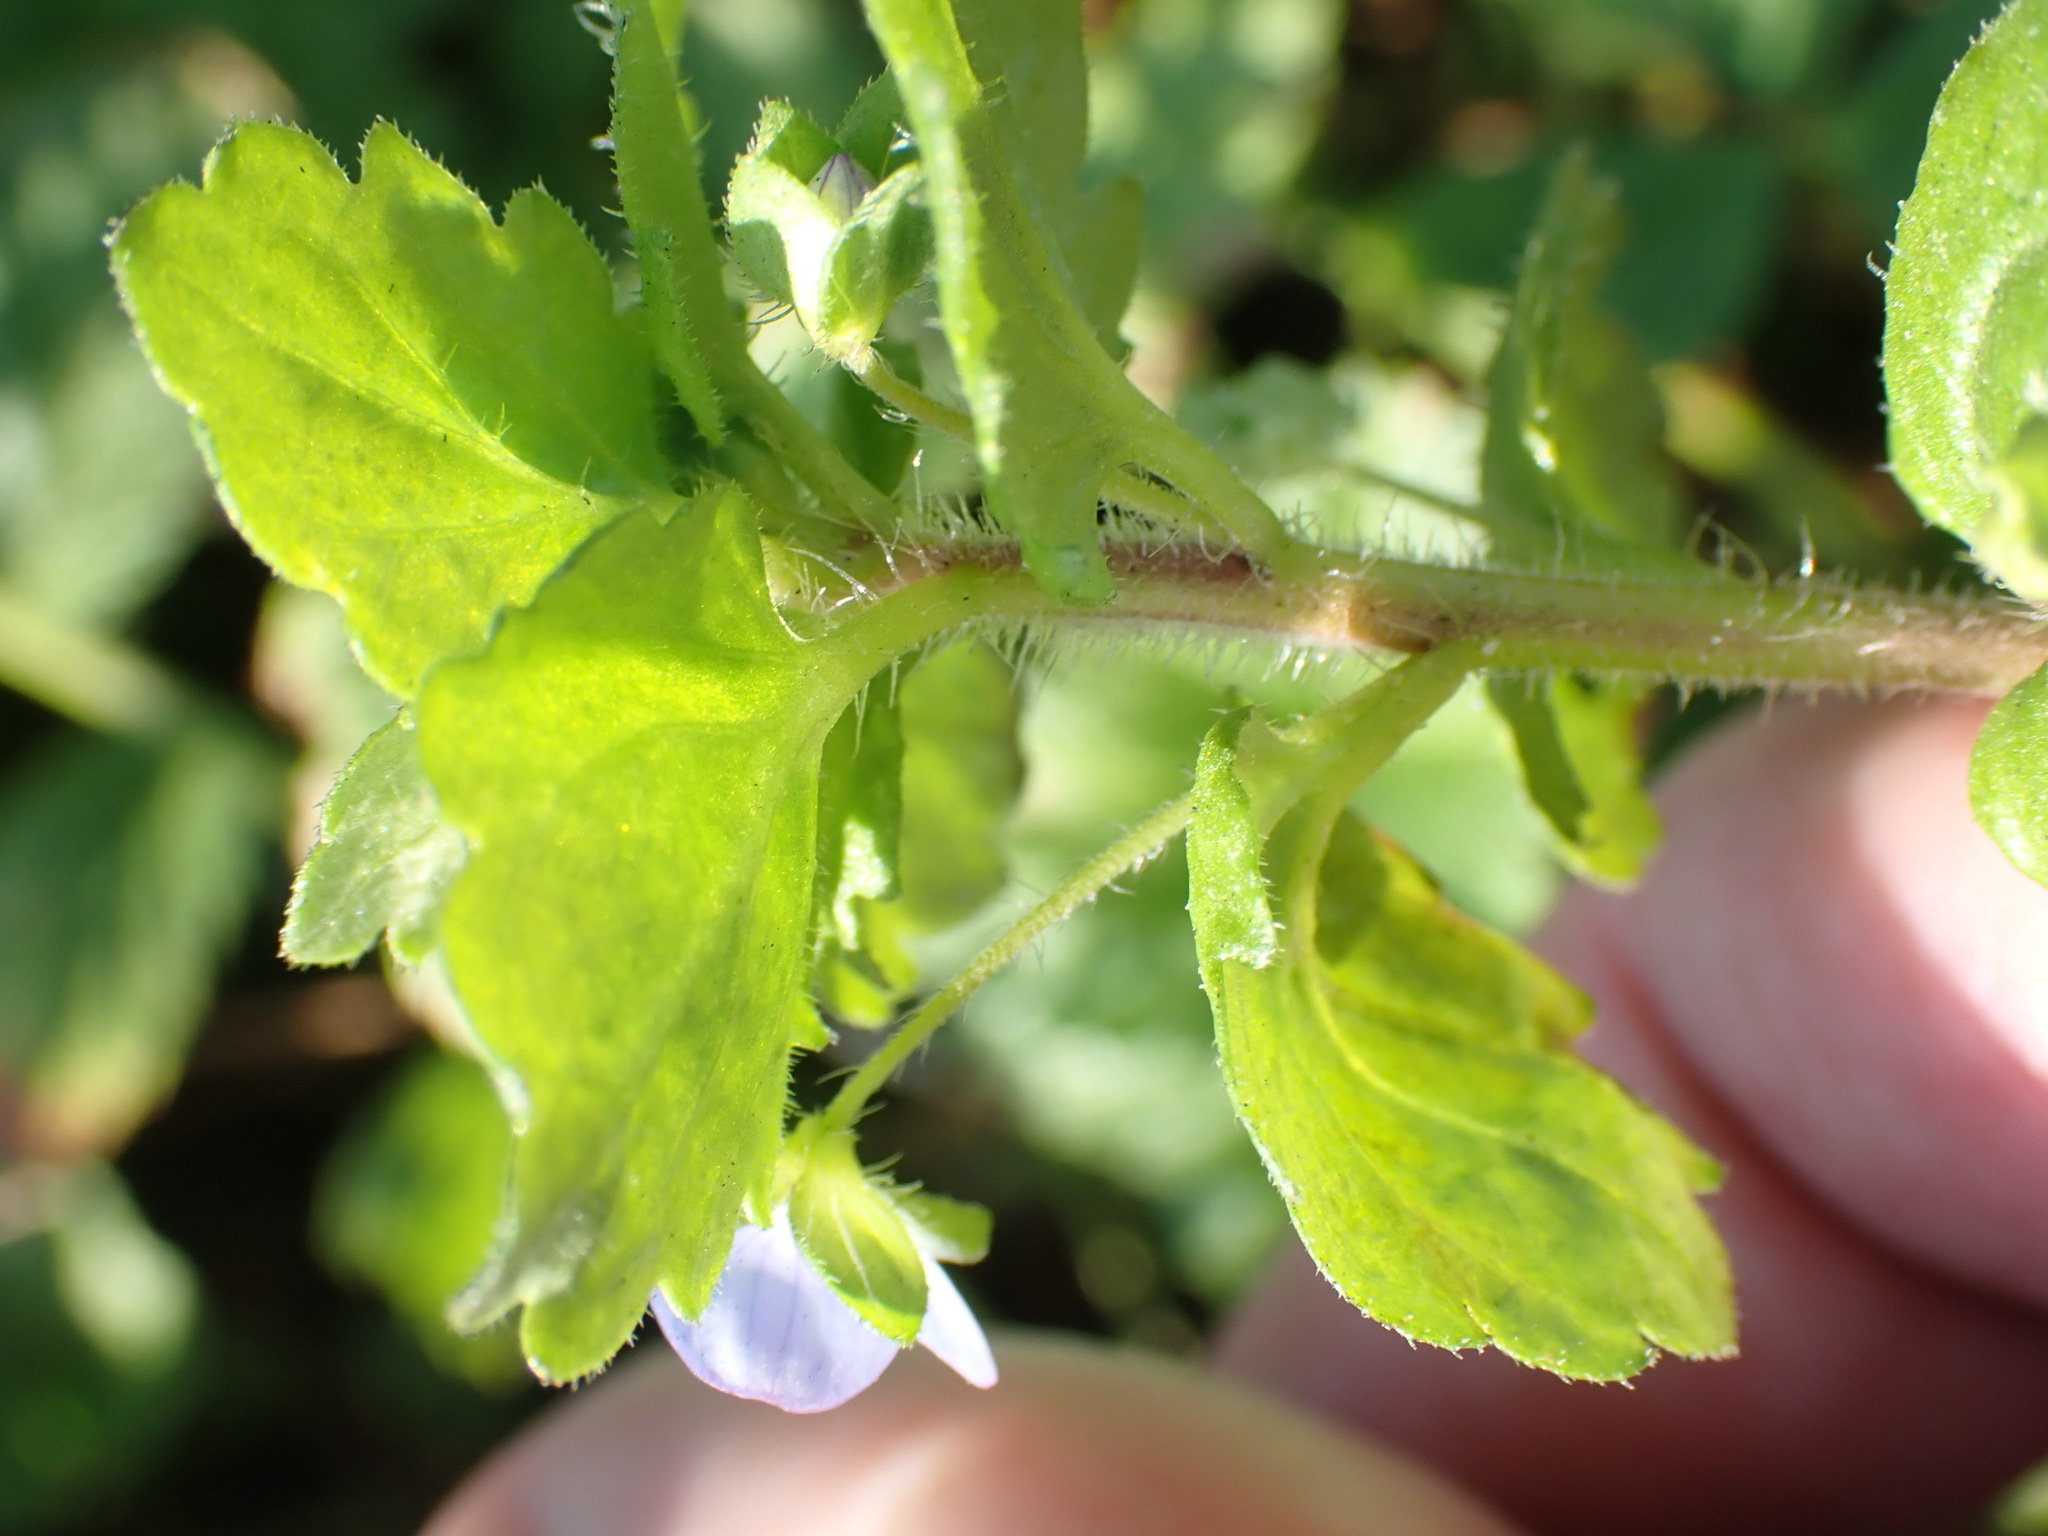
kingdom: Plantae
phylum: Tracheophyta
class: Magnoliopsida
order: Lamiales
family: Plantaginaceae
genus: Veronica
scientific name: Veronica persica
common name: Common field-speedwell
